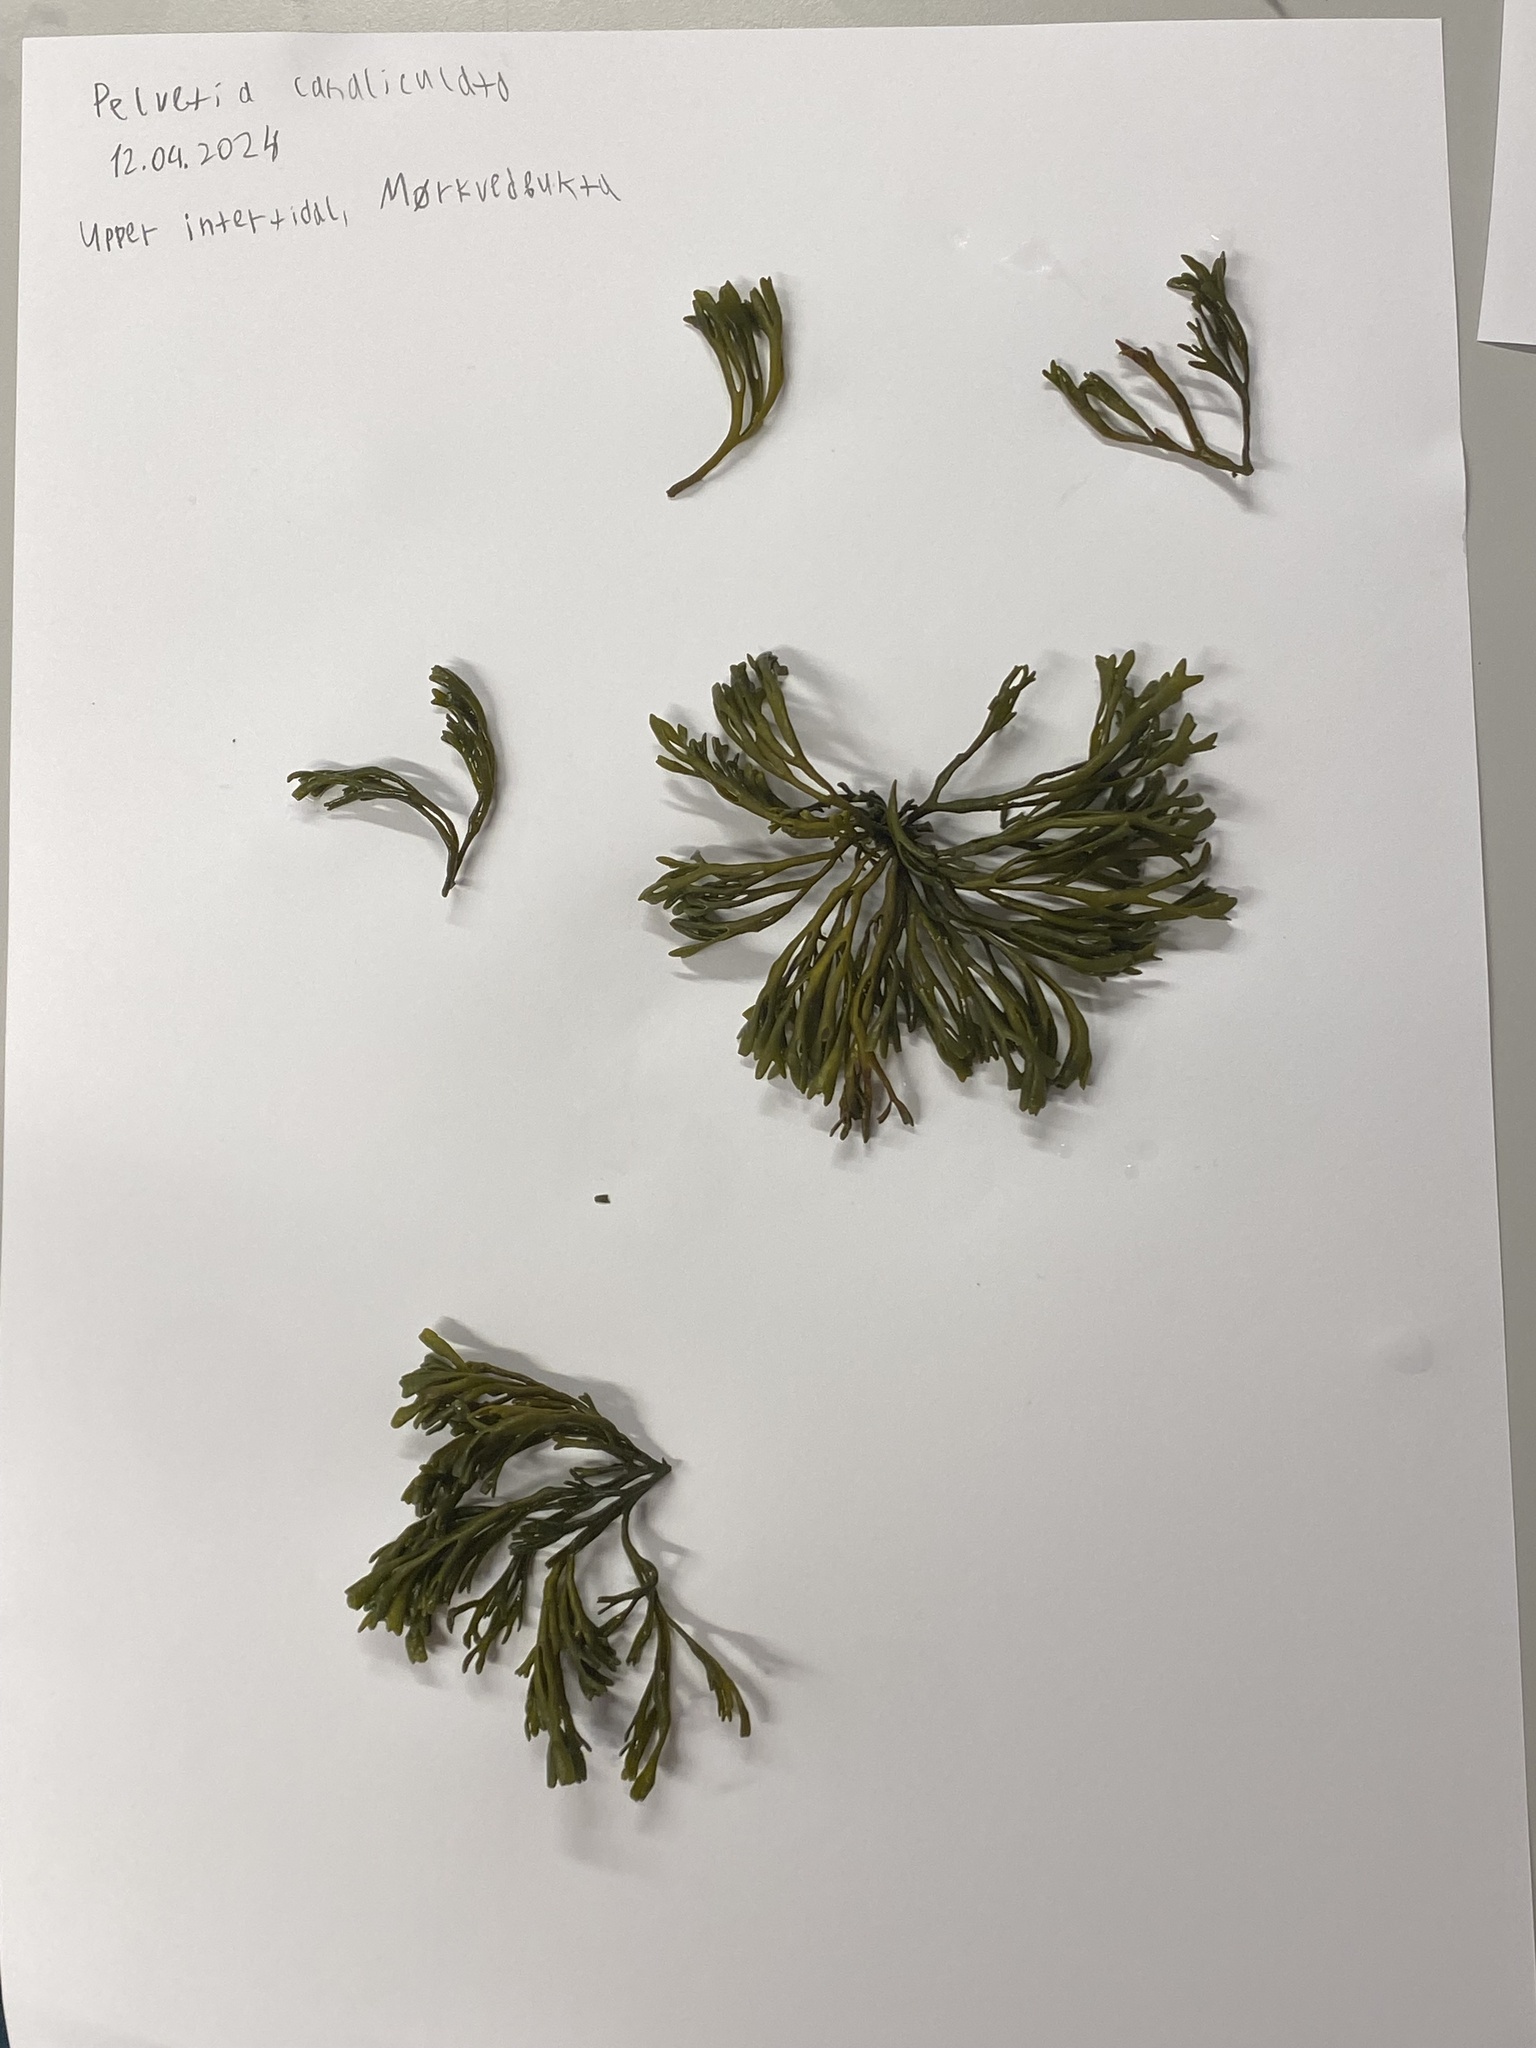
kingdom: Chromista
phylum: Ochrophyta
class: Phaeophyceae
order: Fucales
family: Fucaceae
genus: Pelvetia
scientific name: Pelvetia canaliculata
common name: Channelled wrack
